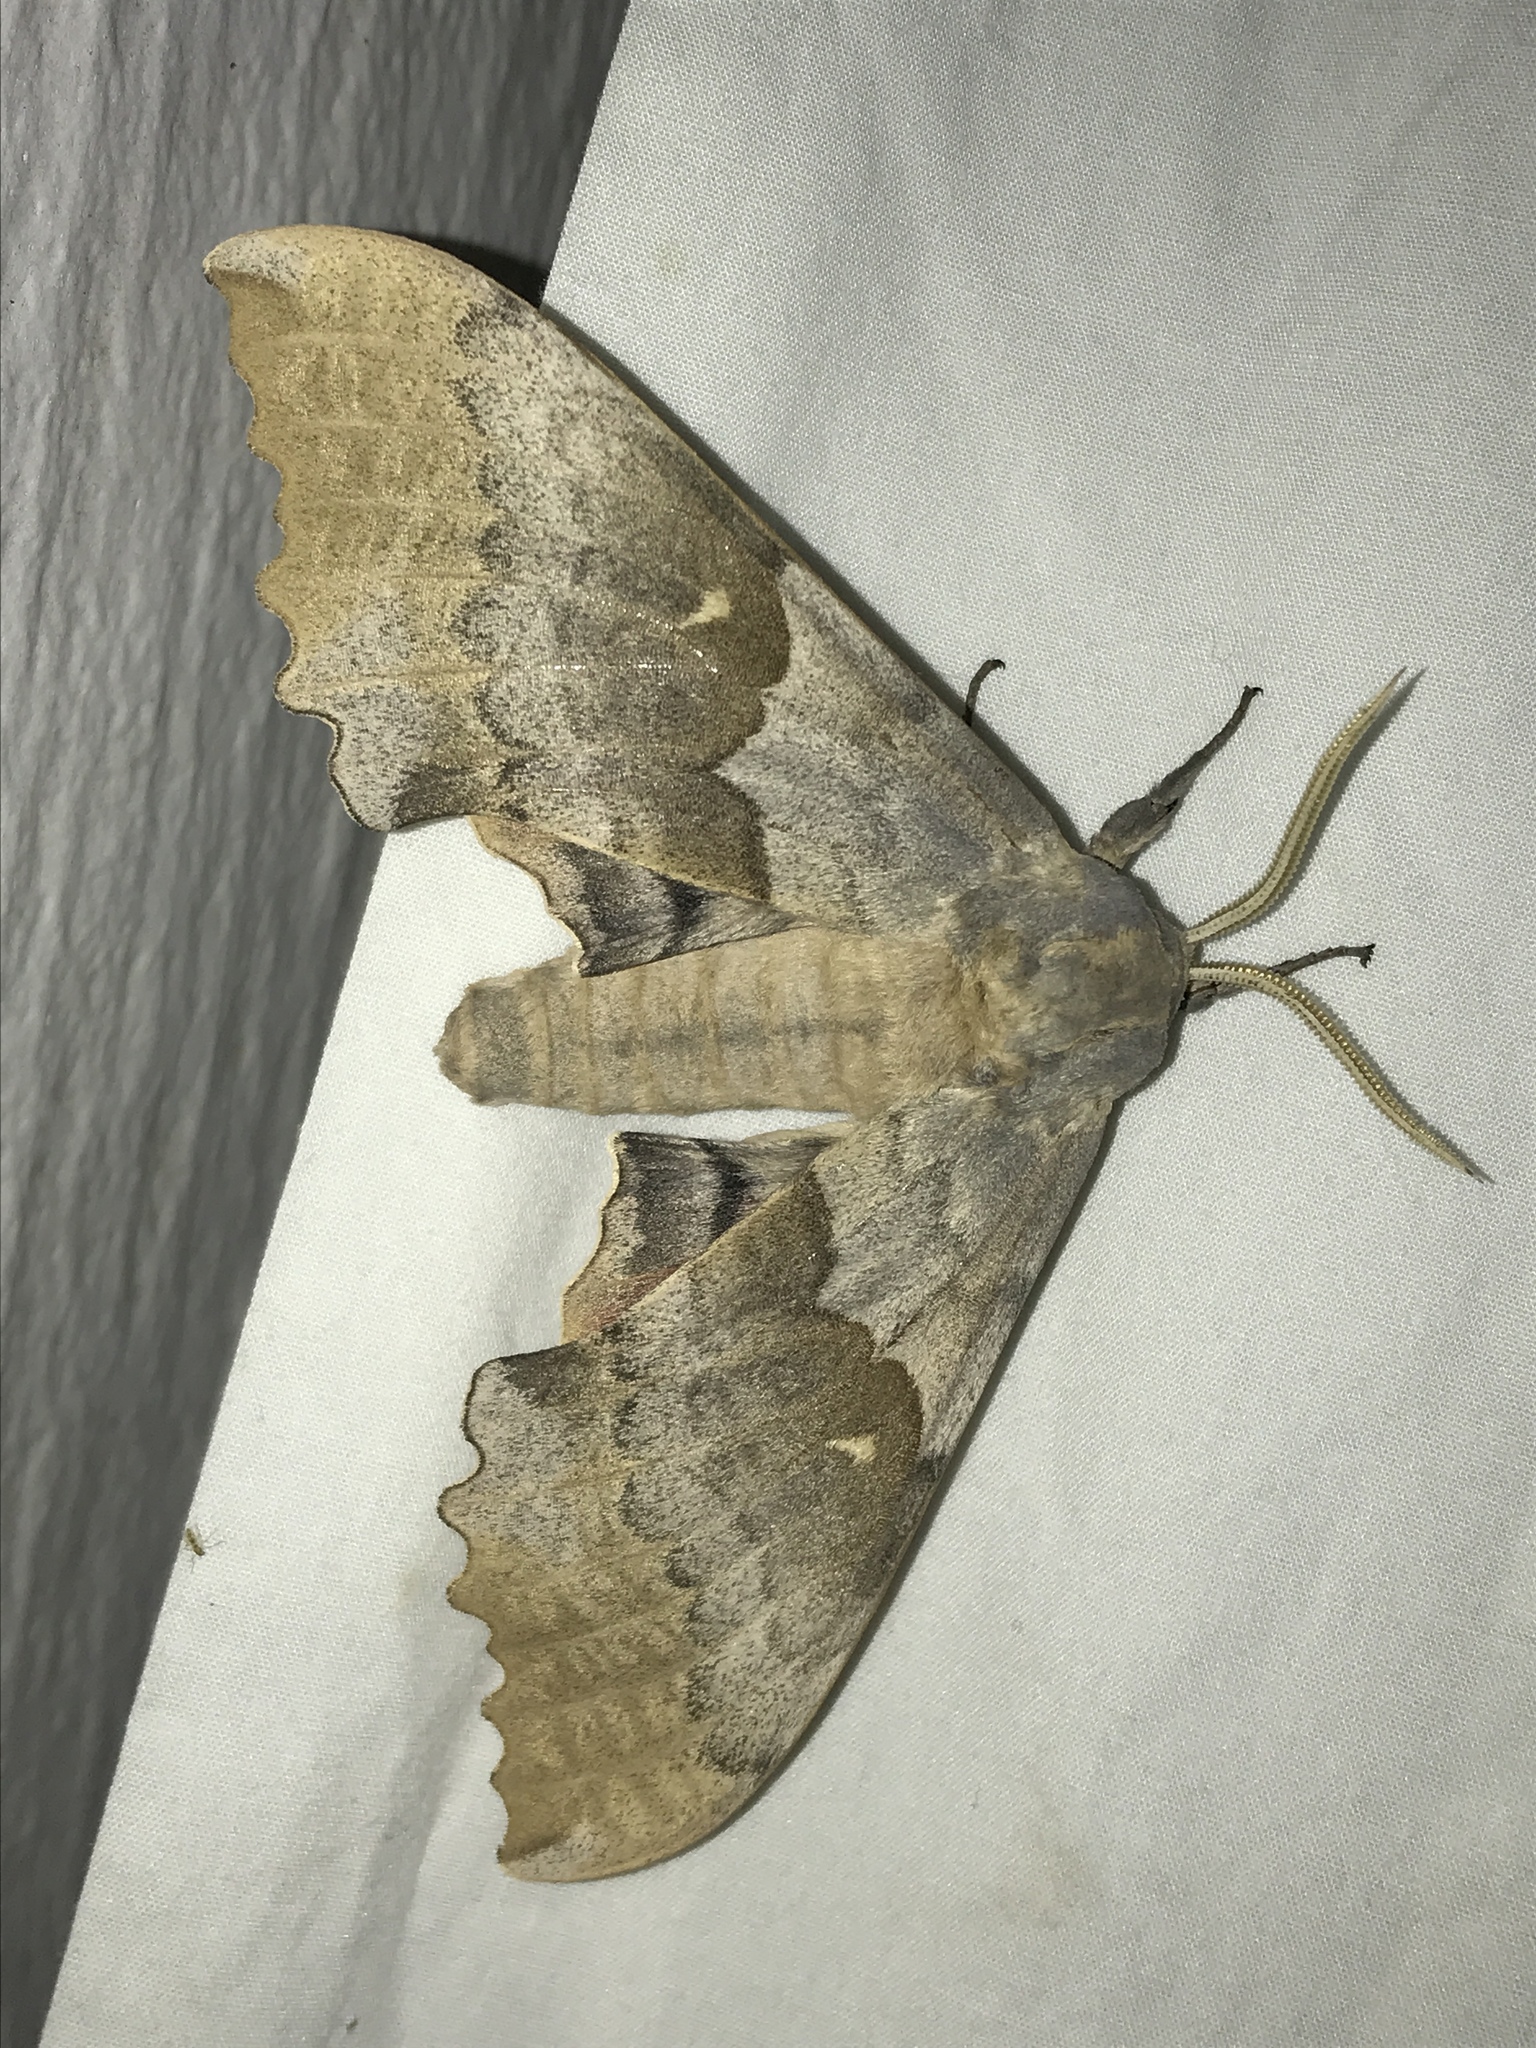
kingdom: Animalia
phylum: Arthropoda
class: Insecta
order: Lepidoptera
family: Sphingidae
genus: Pachysphinx
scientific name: Pachysphinx occidentalis
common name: Western poplar sphinx
